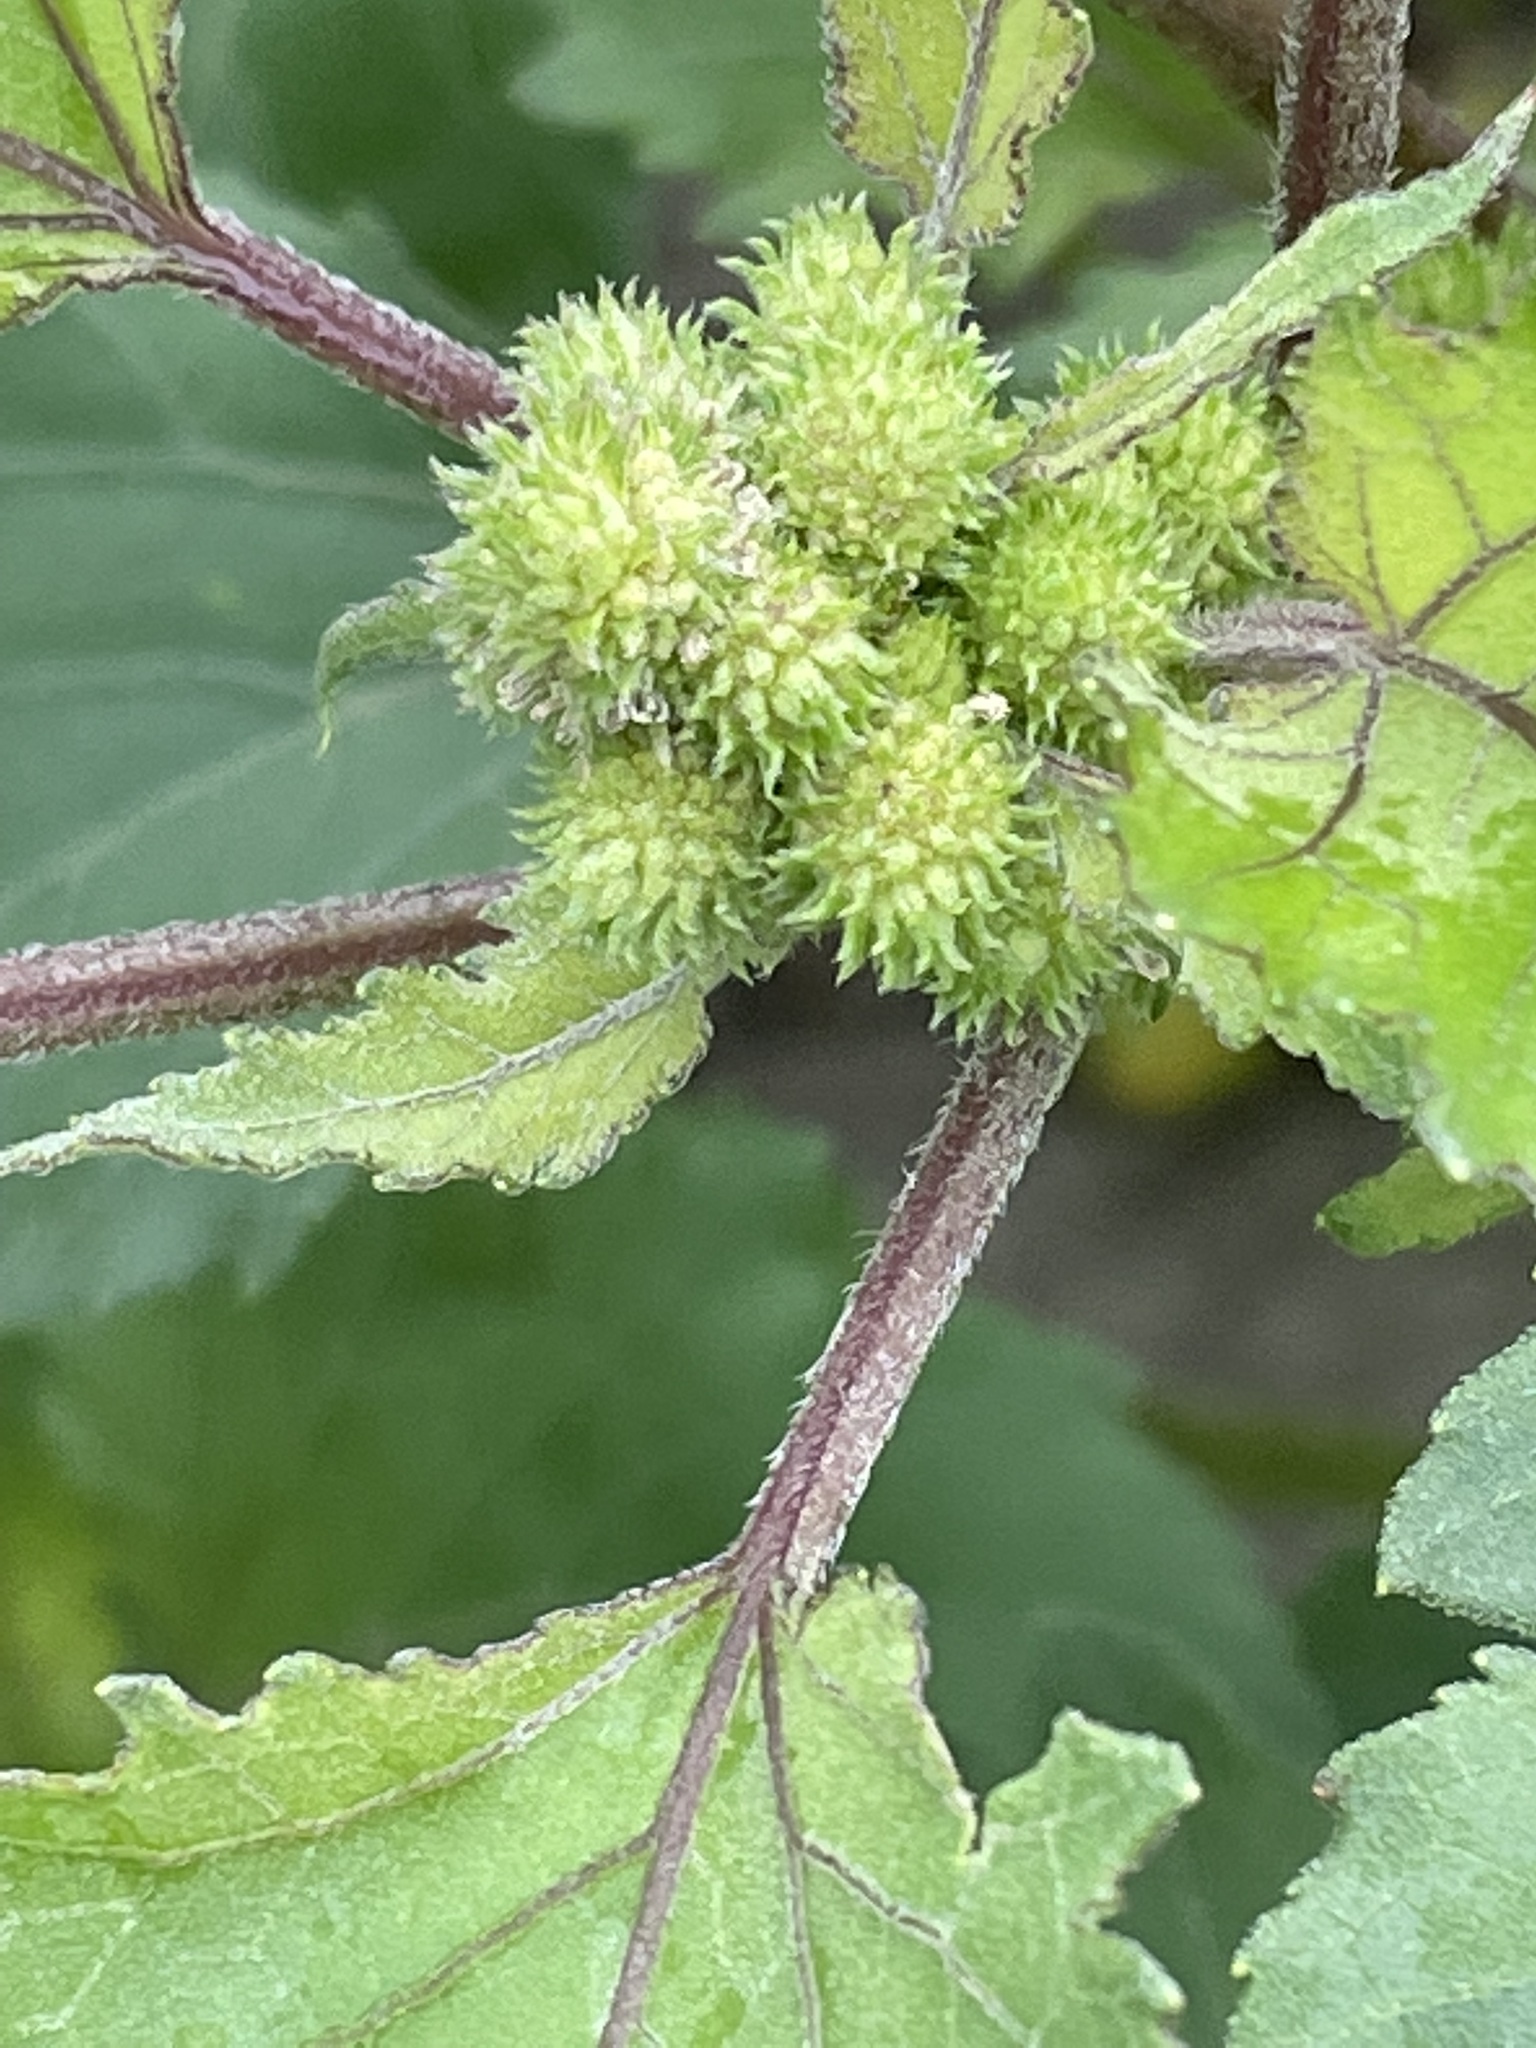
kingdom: Plantae
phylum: Tracheophyta
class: Magnoliopsida
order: Asterales
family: Asteraceae
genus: Xanthium
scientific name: Xanthium orientale
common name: Californian burr
